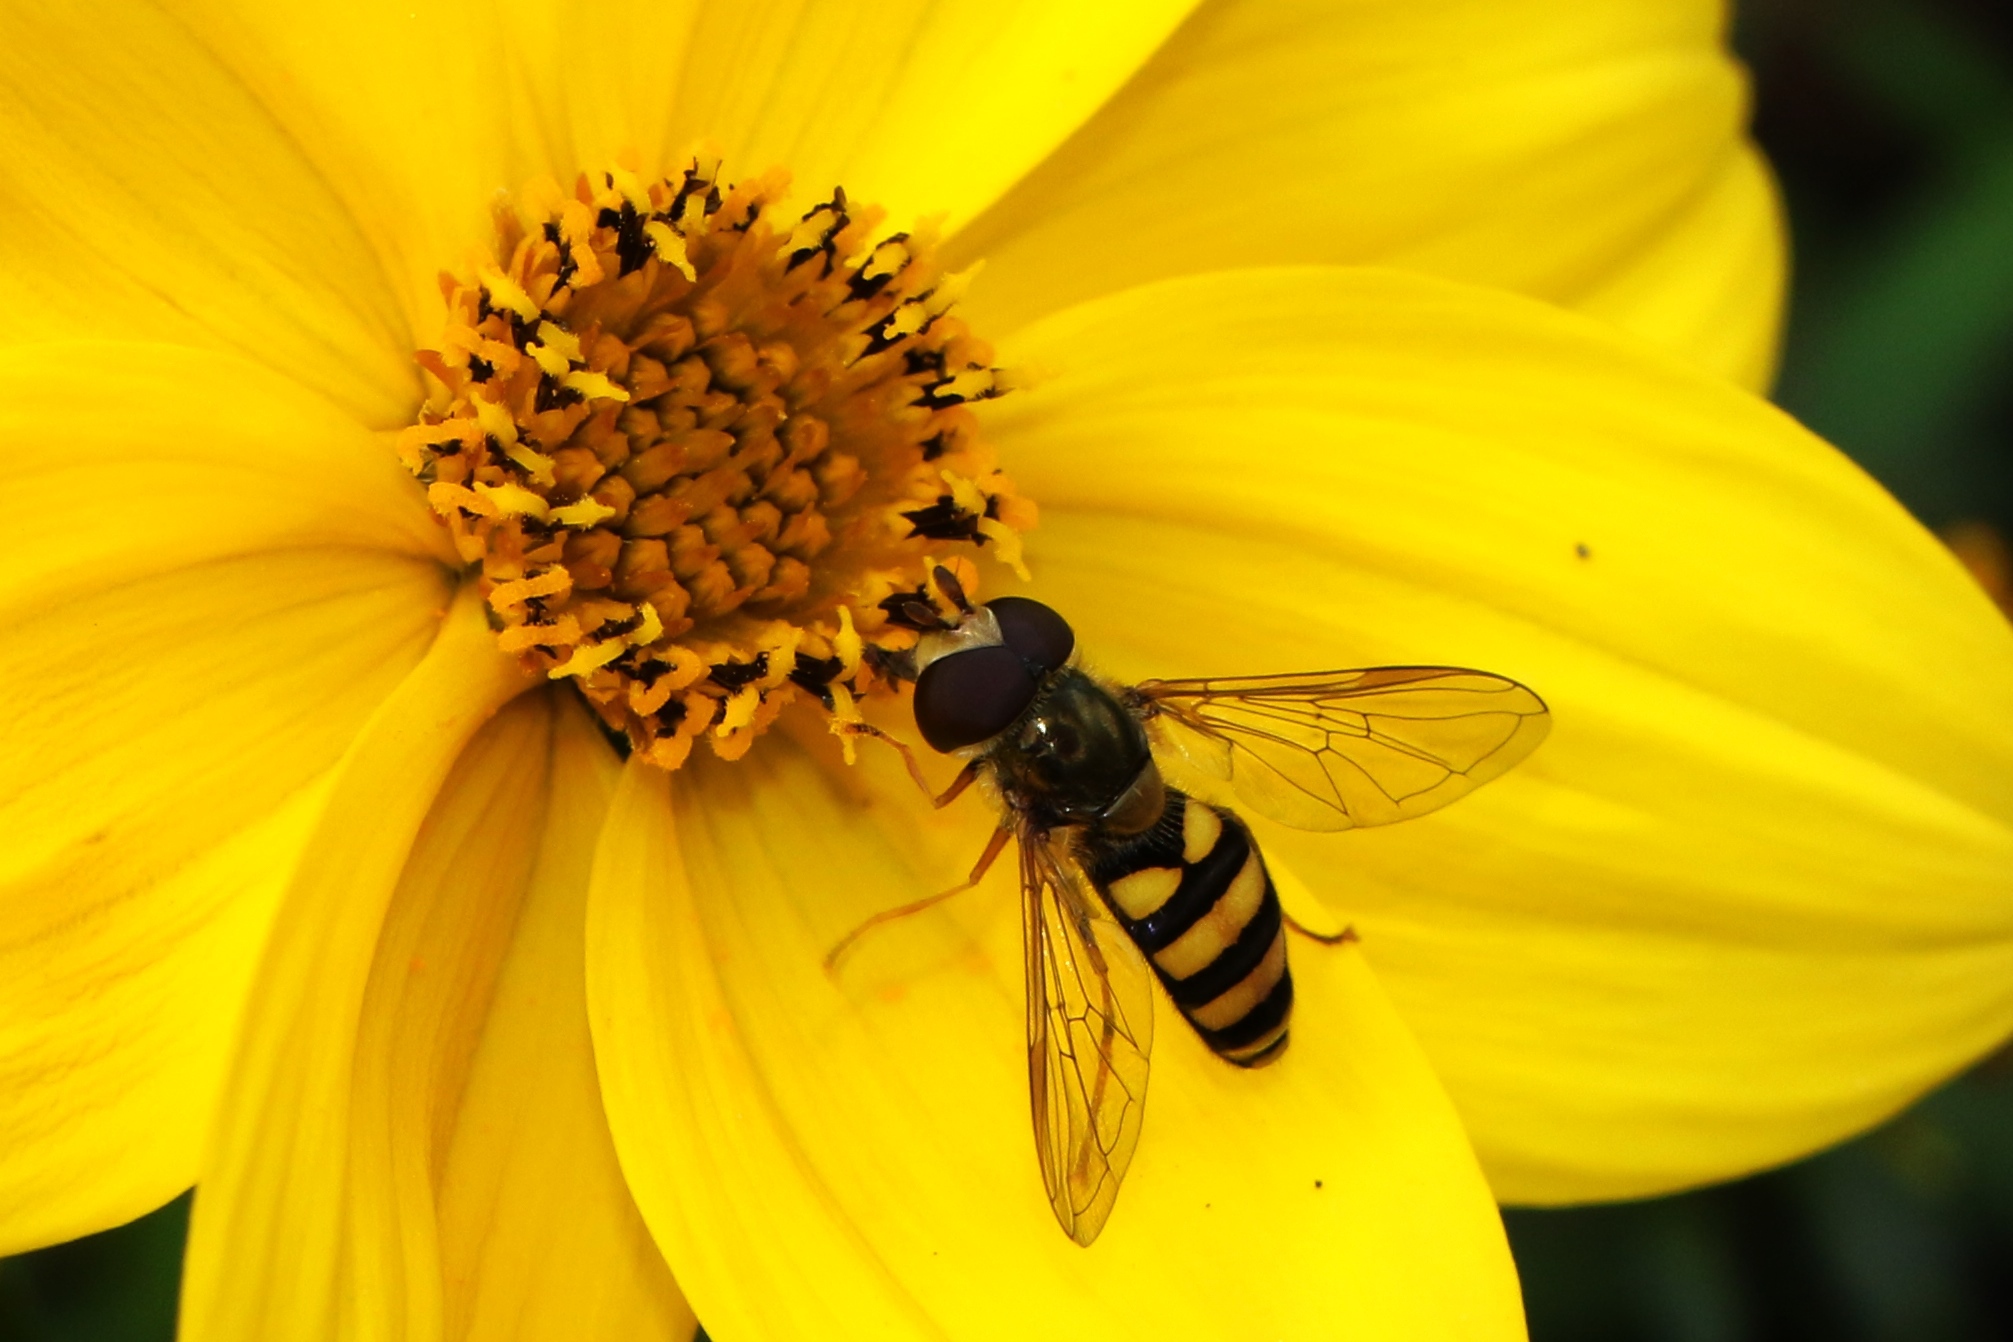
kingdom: Animalia
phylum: Arthropoda
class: Insecta
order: Diptera
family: Syrphidae
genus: Eupeodes
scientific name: Eupeodes
